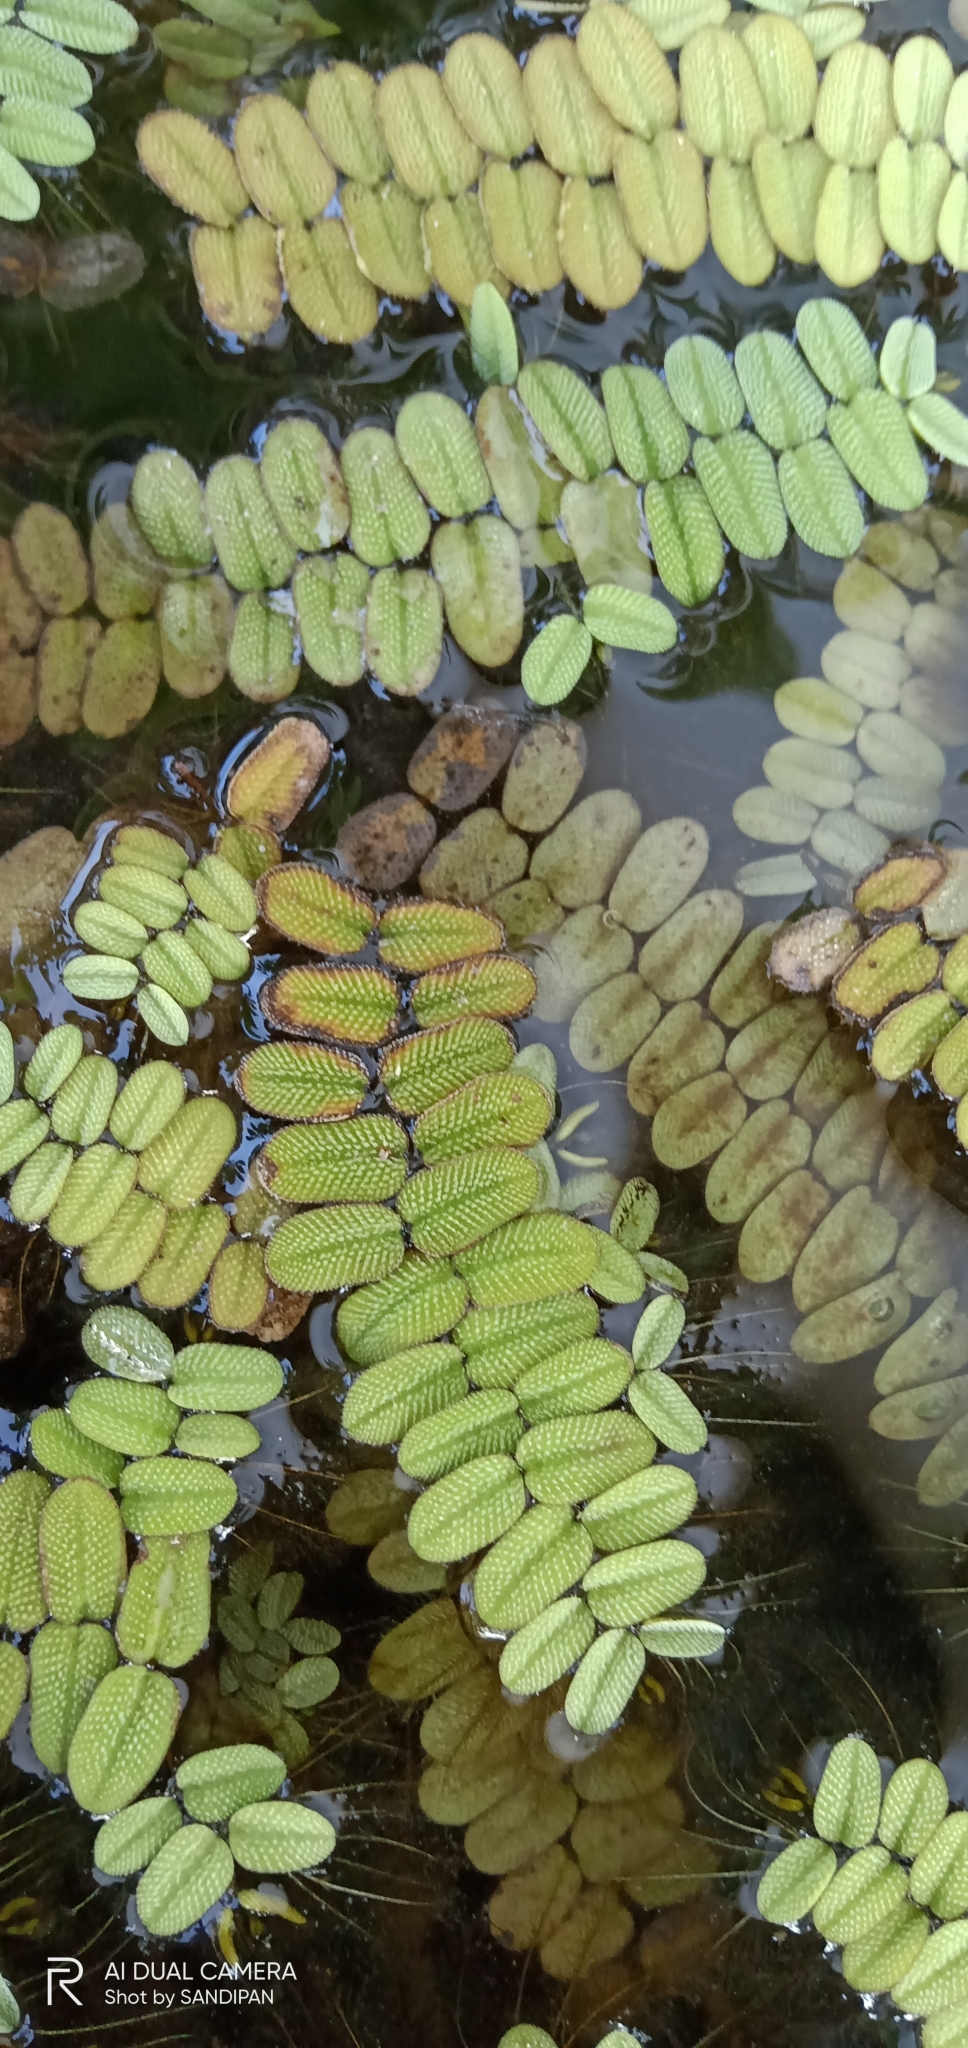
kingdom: Plantae
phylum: Tracheophyta
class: Polypodiopsida
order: Salviniales
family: Salviniaceae
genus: Salvinia
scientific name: Salvinia natans
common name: Floating fern
